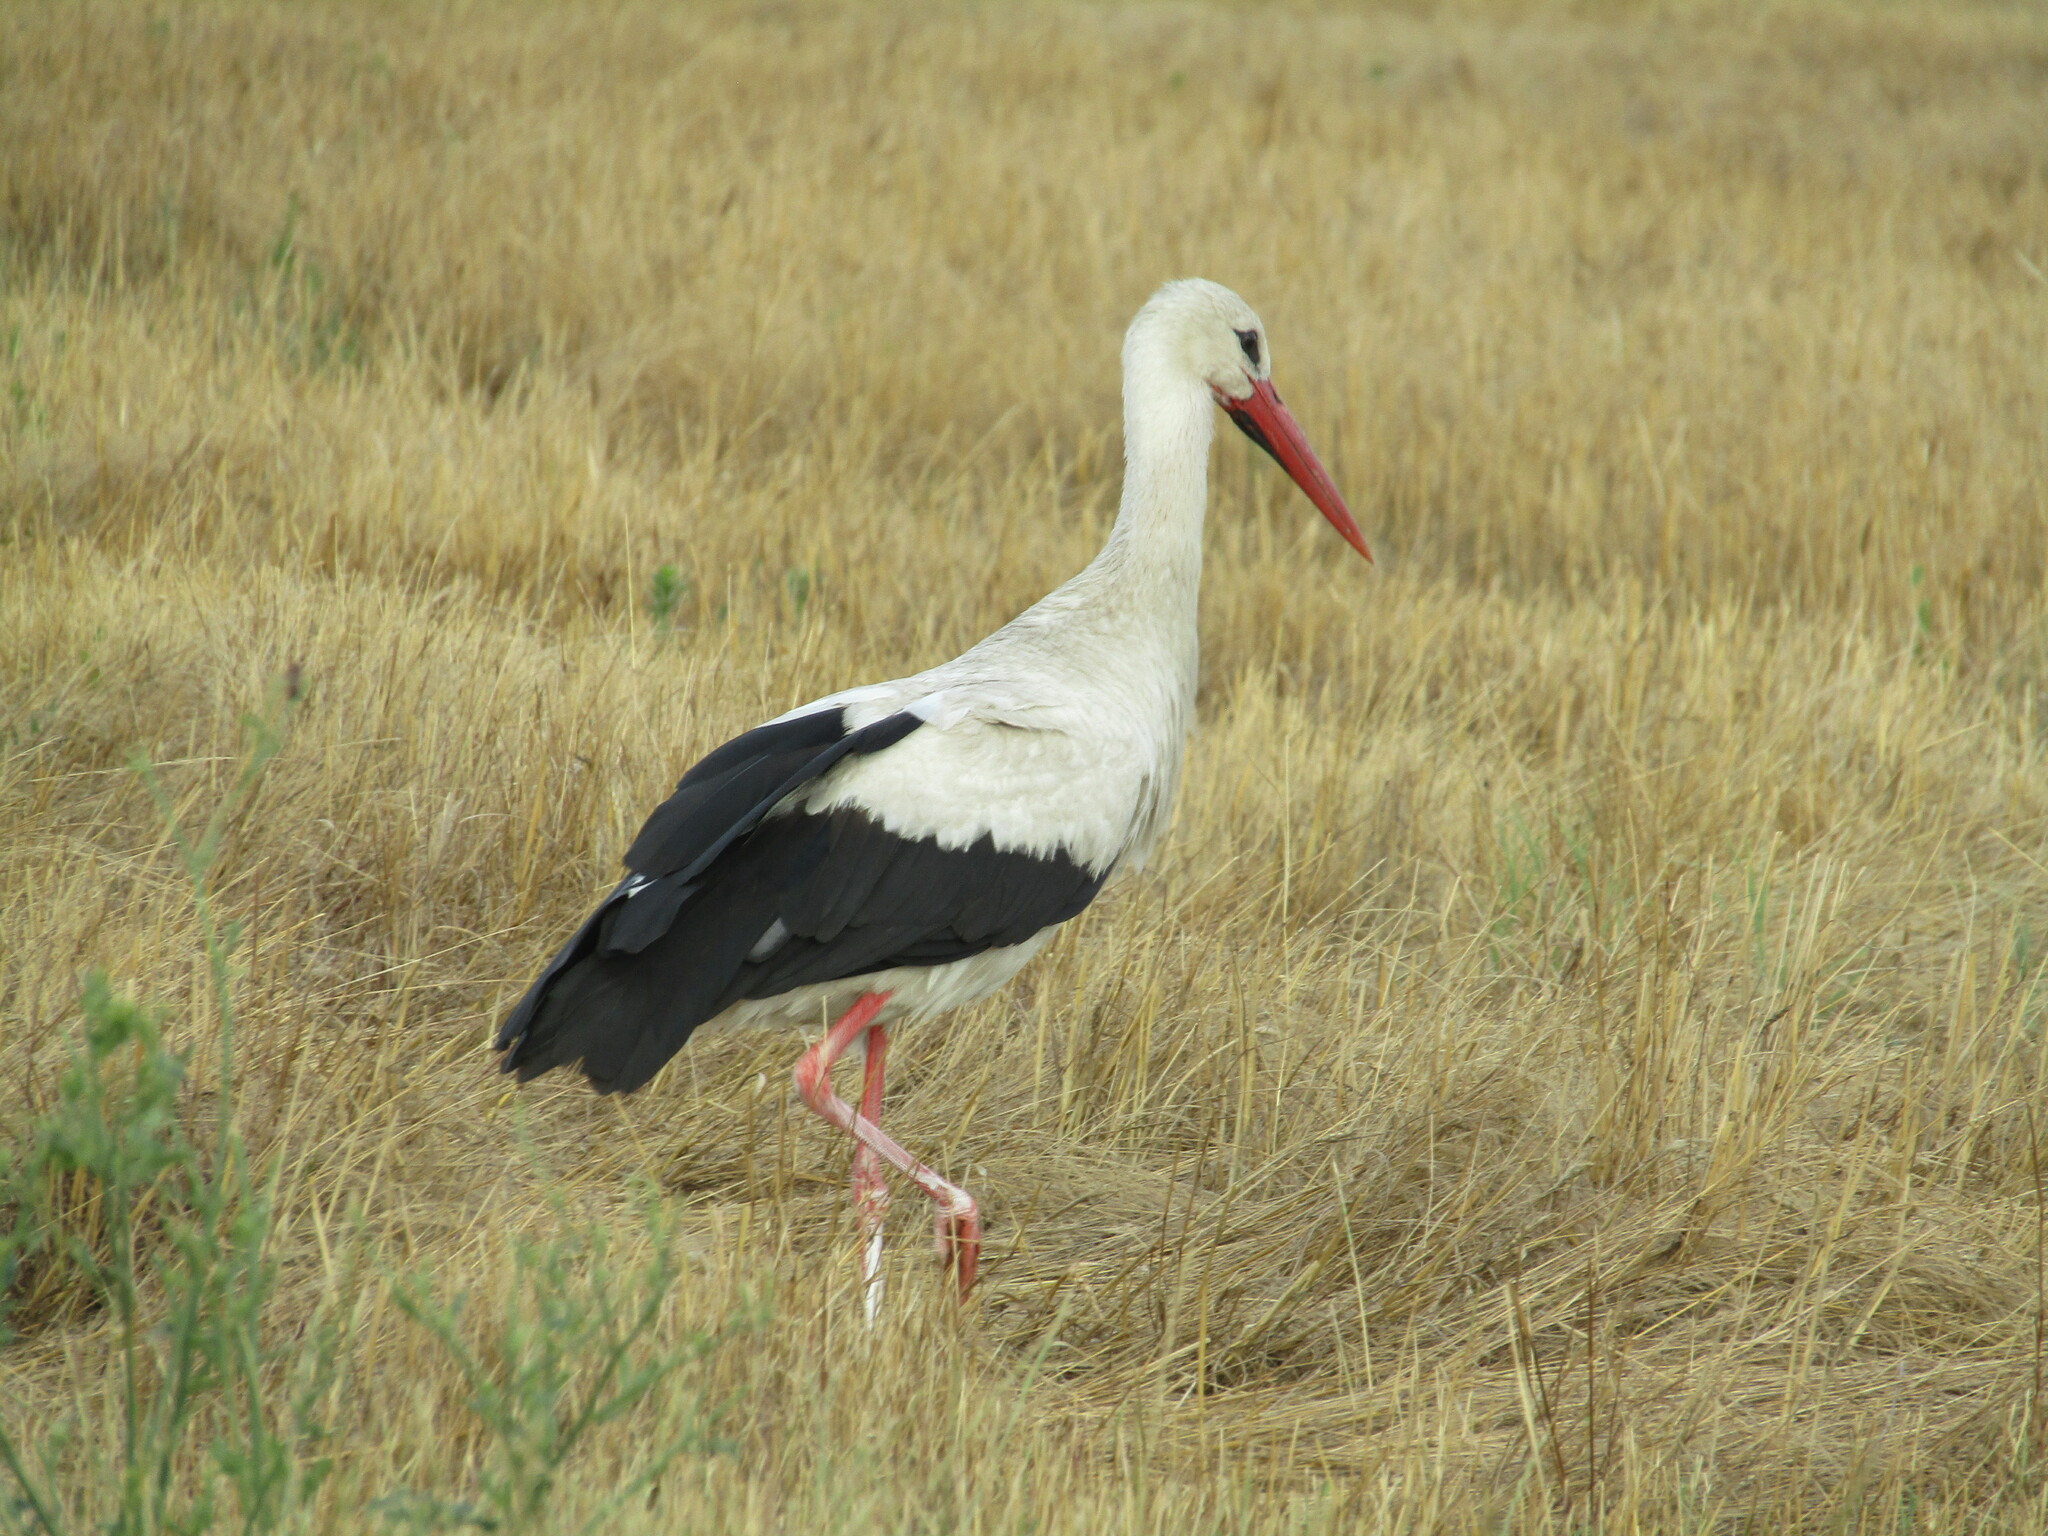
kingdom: Animalia
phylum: Chordata
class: Aves
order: Ciconiiformes
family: Ciconiidae
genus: Ciconia
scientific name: Ciconia ciconia
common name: White stork
